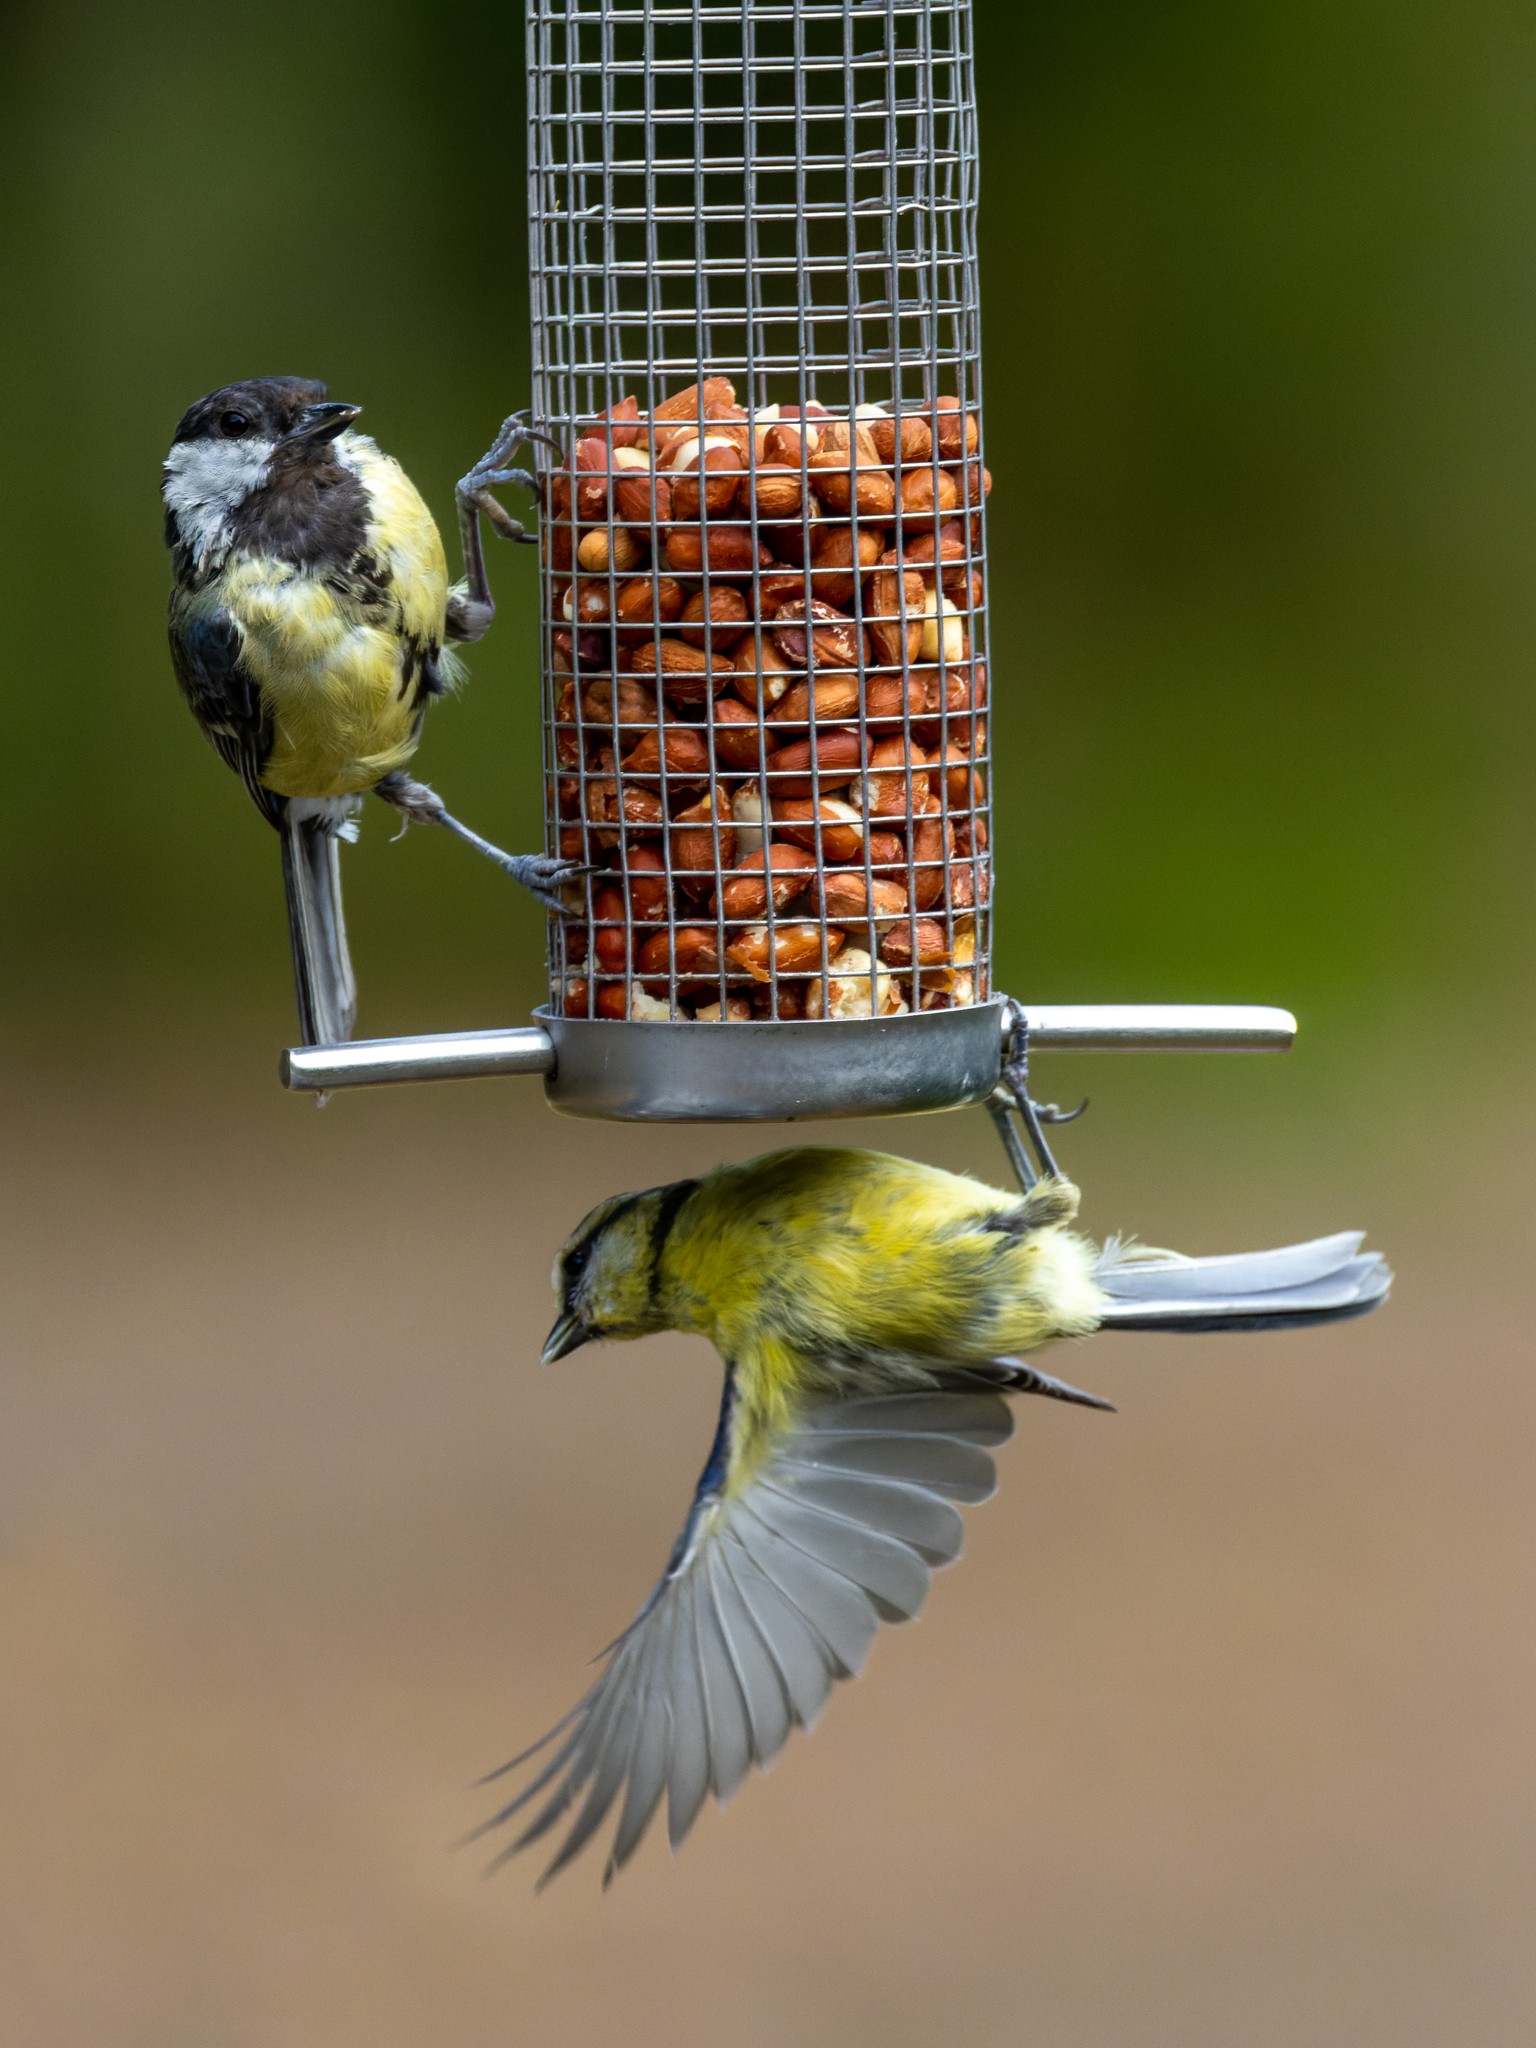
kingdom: Animalia
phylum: Chordata
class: Aves
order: Passeriformes
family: Paridae
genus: Cyanistes
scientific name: Cyanistes caeruleus
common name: Eurasian blue tit
